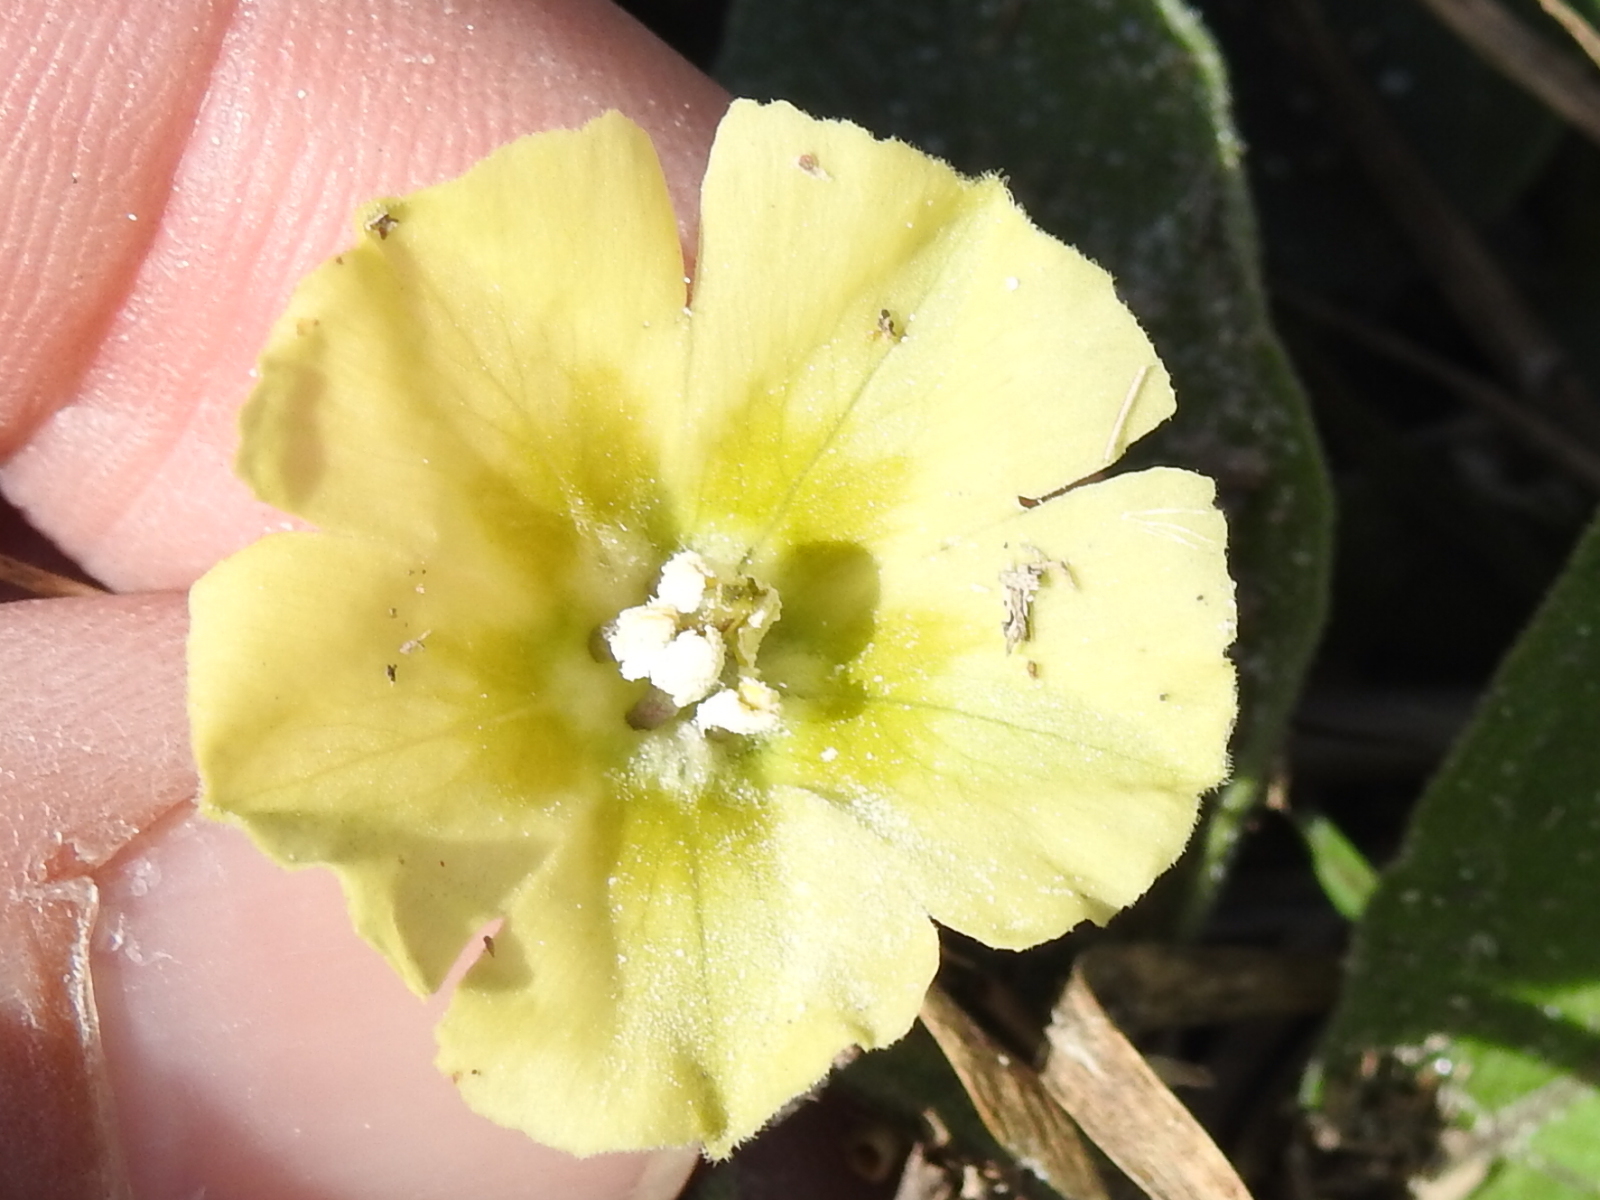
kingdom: Plantae
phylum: Tracheophyta
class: Magnoliopsida
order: Solanales
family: Solanaceae
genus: Physalis
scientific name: Physalis walteri
